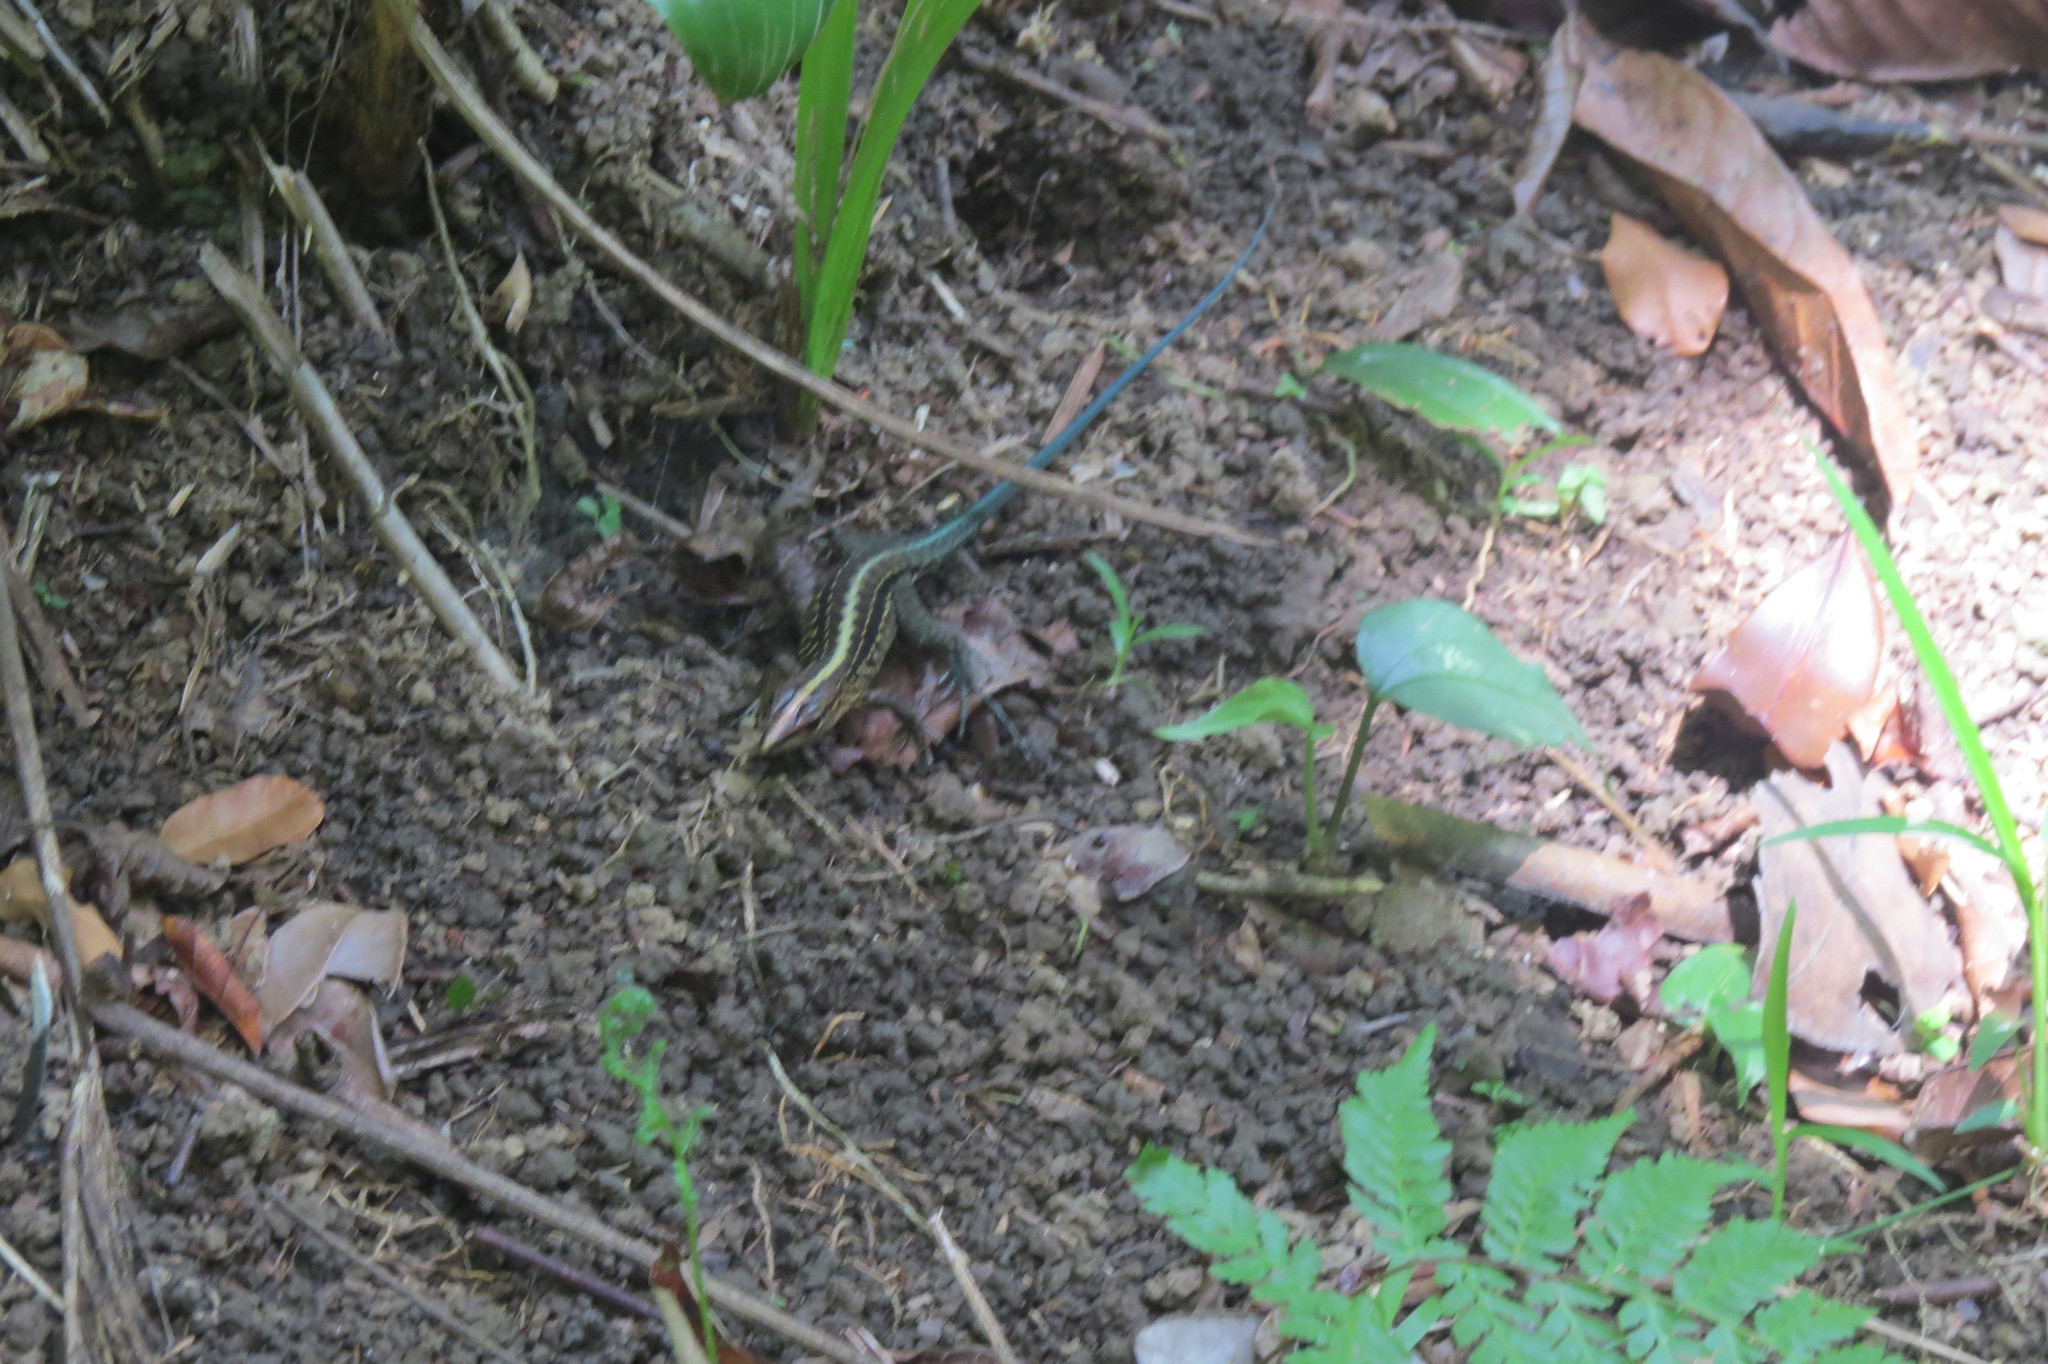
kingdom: Animalia
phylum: Chordata
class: Squamata
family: Teiidae
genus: Holcosus
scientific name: Holcosus festivus
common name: Middle american ameiva
